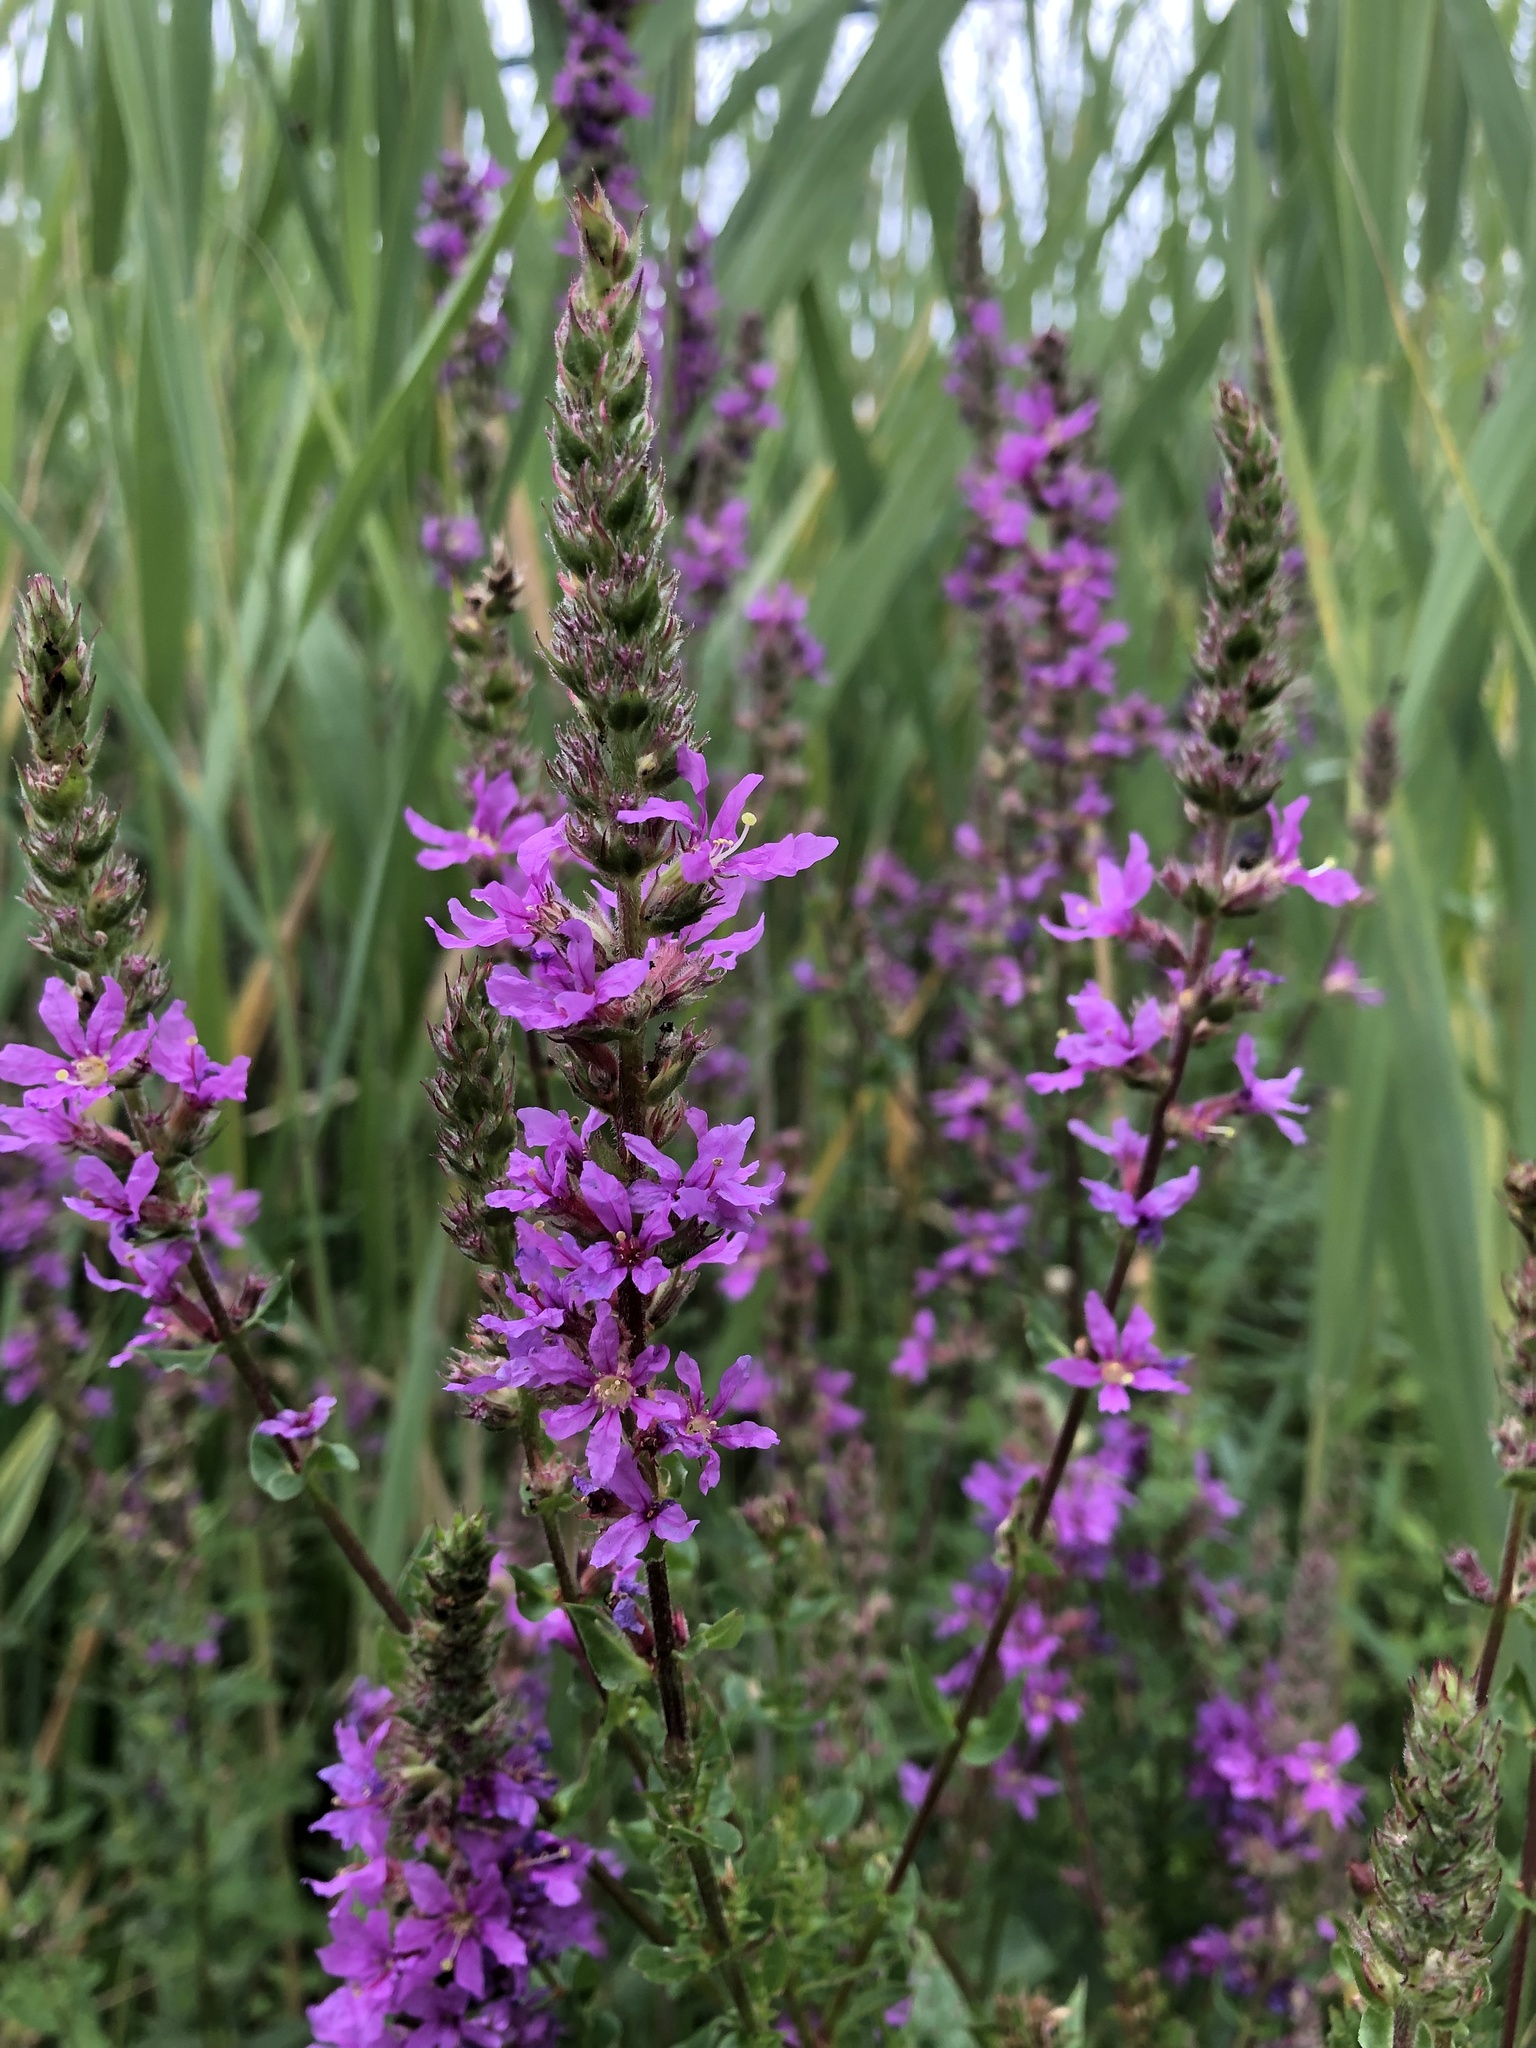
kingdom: Plantae
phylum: Tracheophyta
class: Magnoliopsida
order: Myrtales
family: Lythraceae
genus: Lythrum
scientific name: Lythrum salicaria
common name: Purple loosestrife
